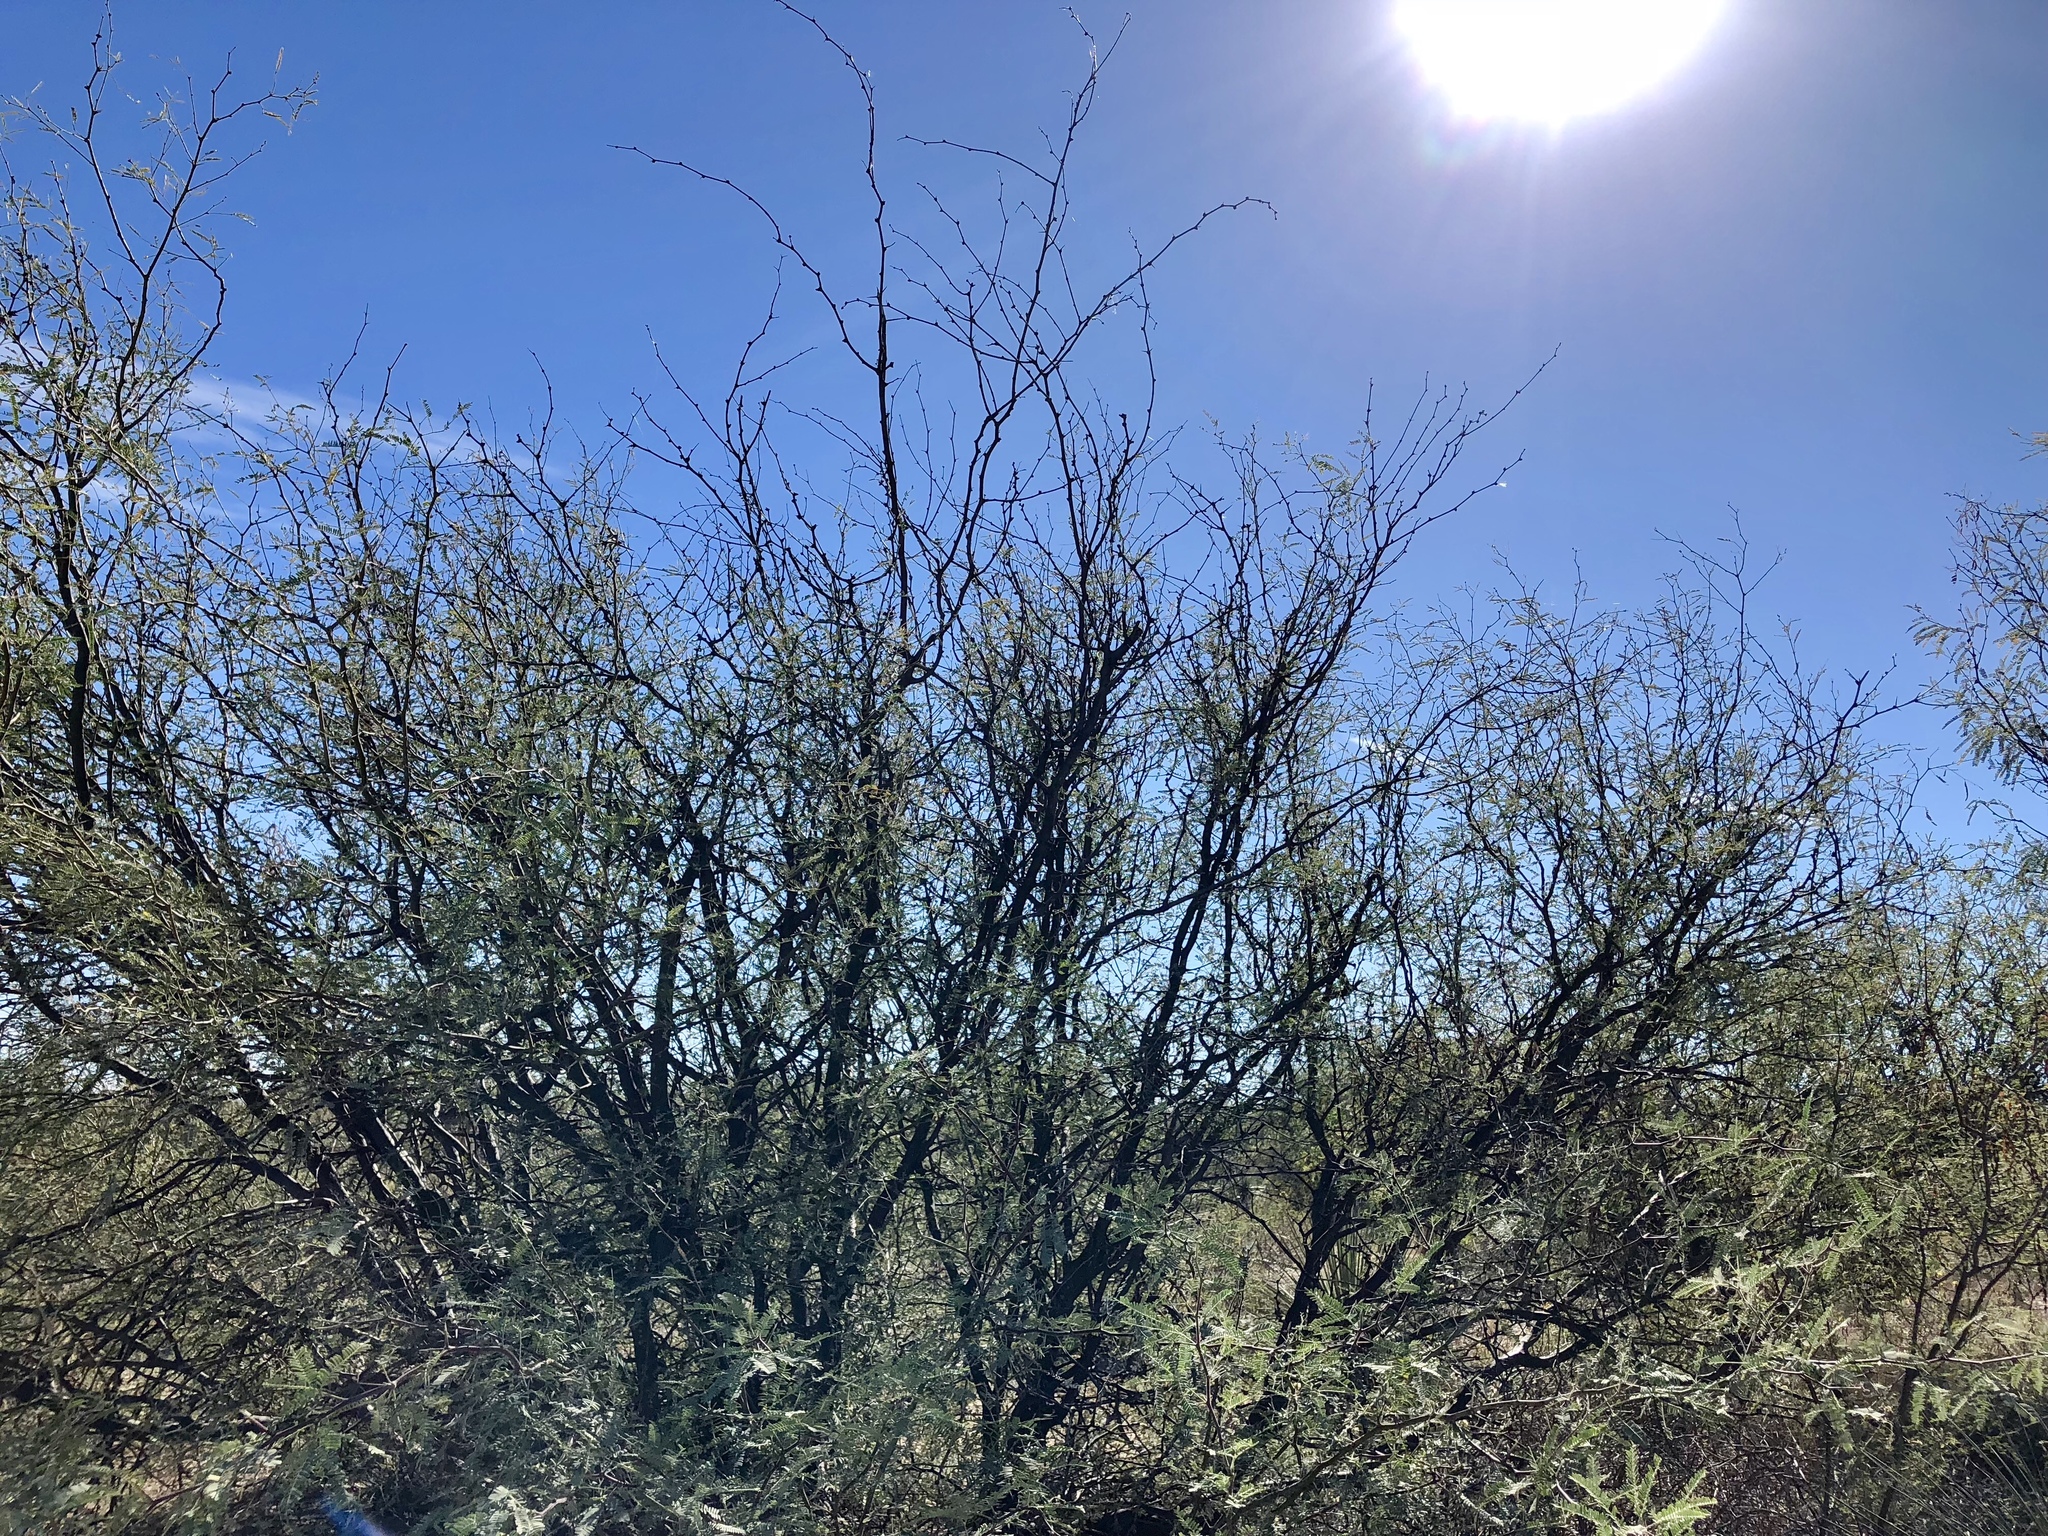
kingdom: Plantae
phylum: Tracheophyta
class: Magnoliopsida
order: Fabales
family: Fabaceae
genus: Prosopis
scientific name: Prosopis velutina
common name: Velvet mesquite
